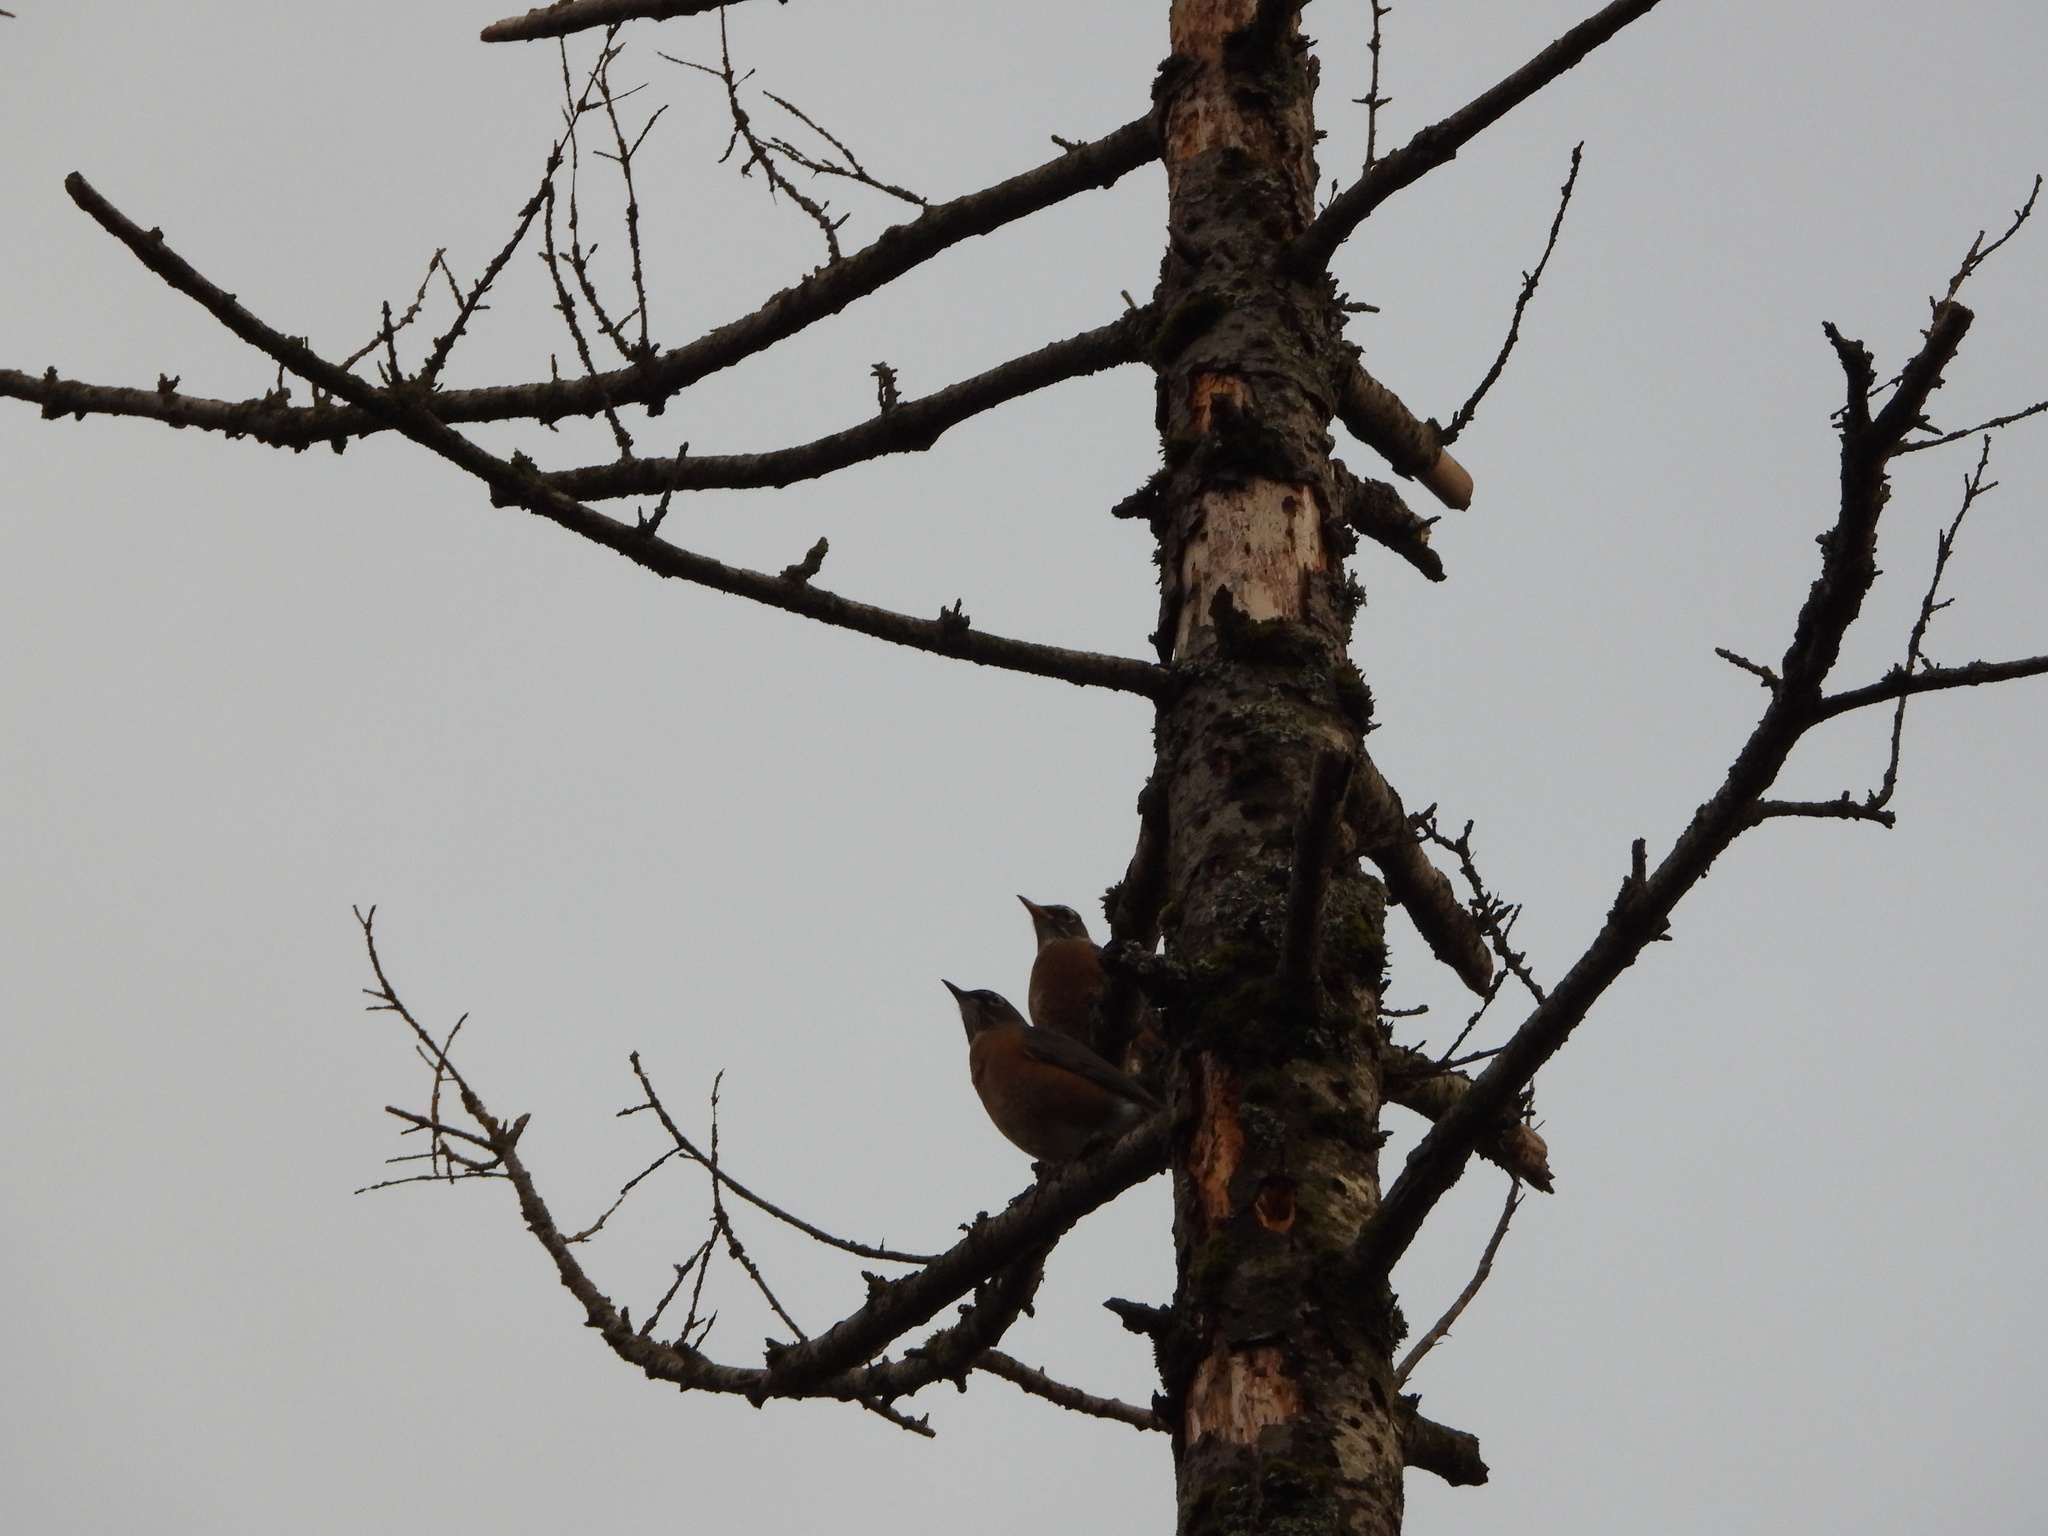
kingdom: Animalia
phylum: Chordata
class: Aves
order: Passeriformes
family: Turdidae
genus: Turdus
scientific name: Turdus migratorius
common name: American robin
